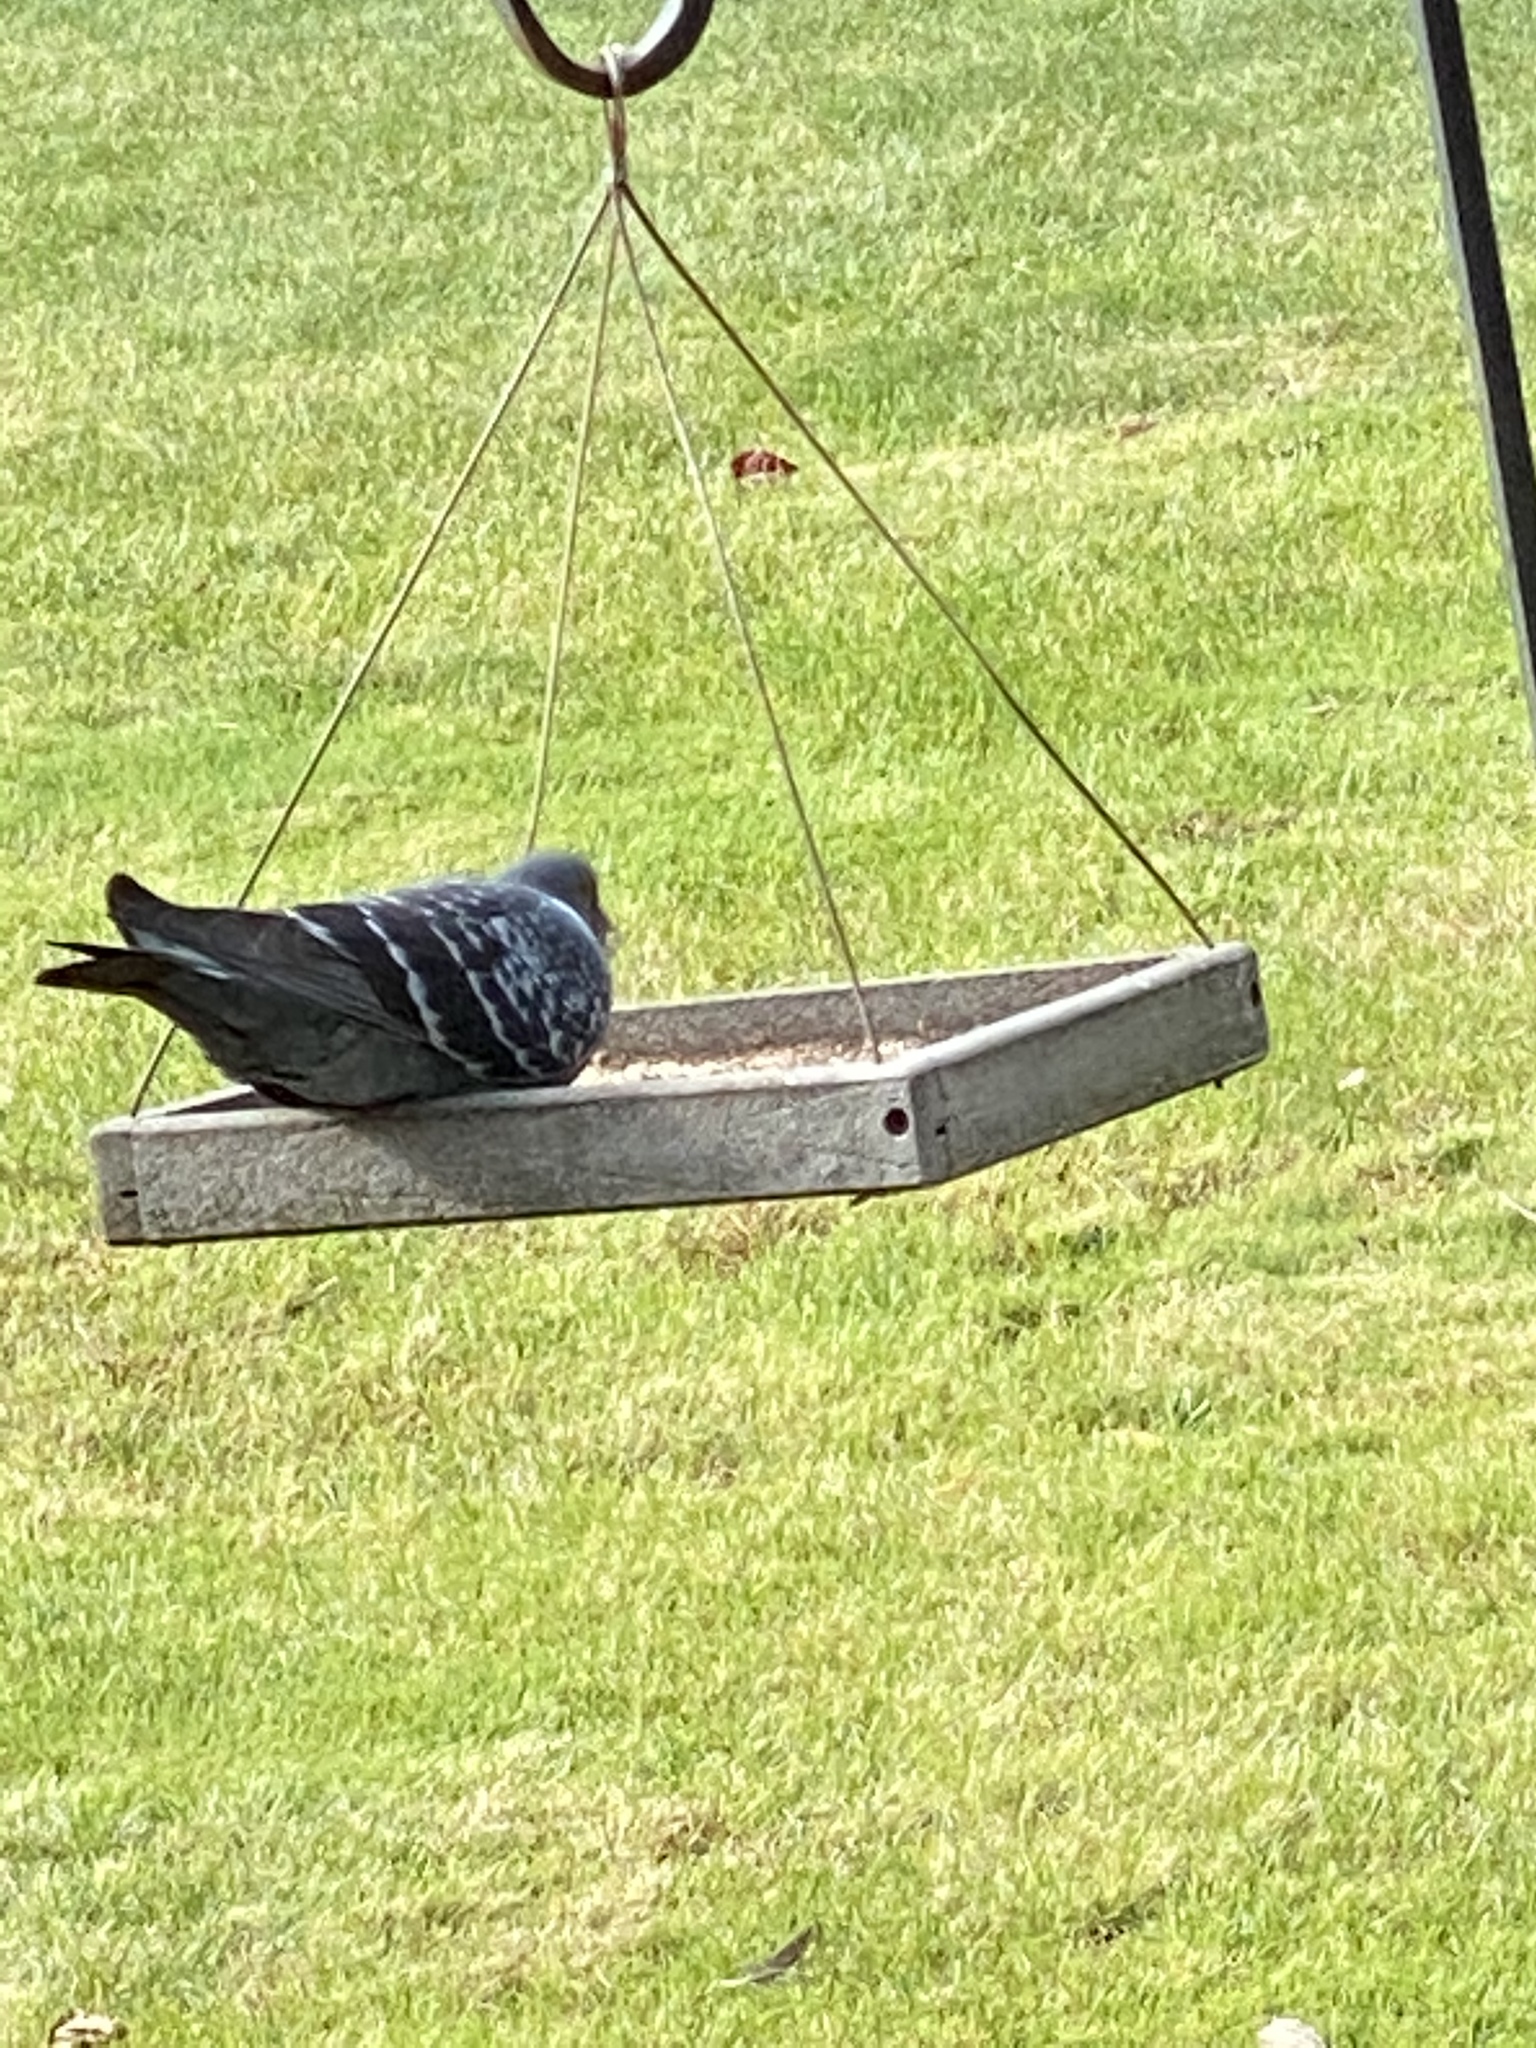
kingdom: Animalia
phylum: Chordata
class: Aves
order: Columbiformes
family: Columbidae
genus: Columba
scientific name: Columba livia
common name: Rock pigeon
